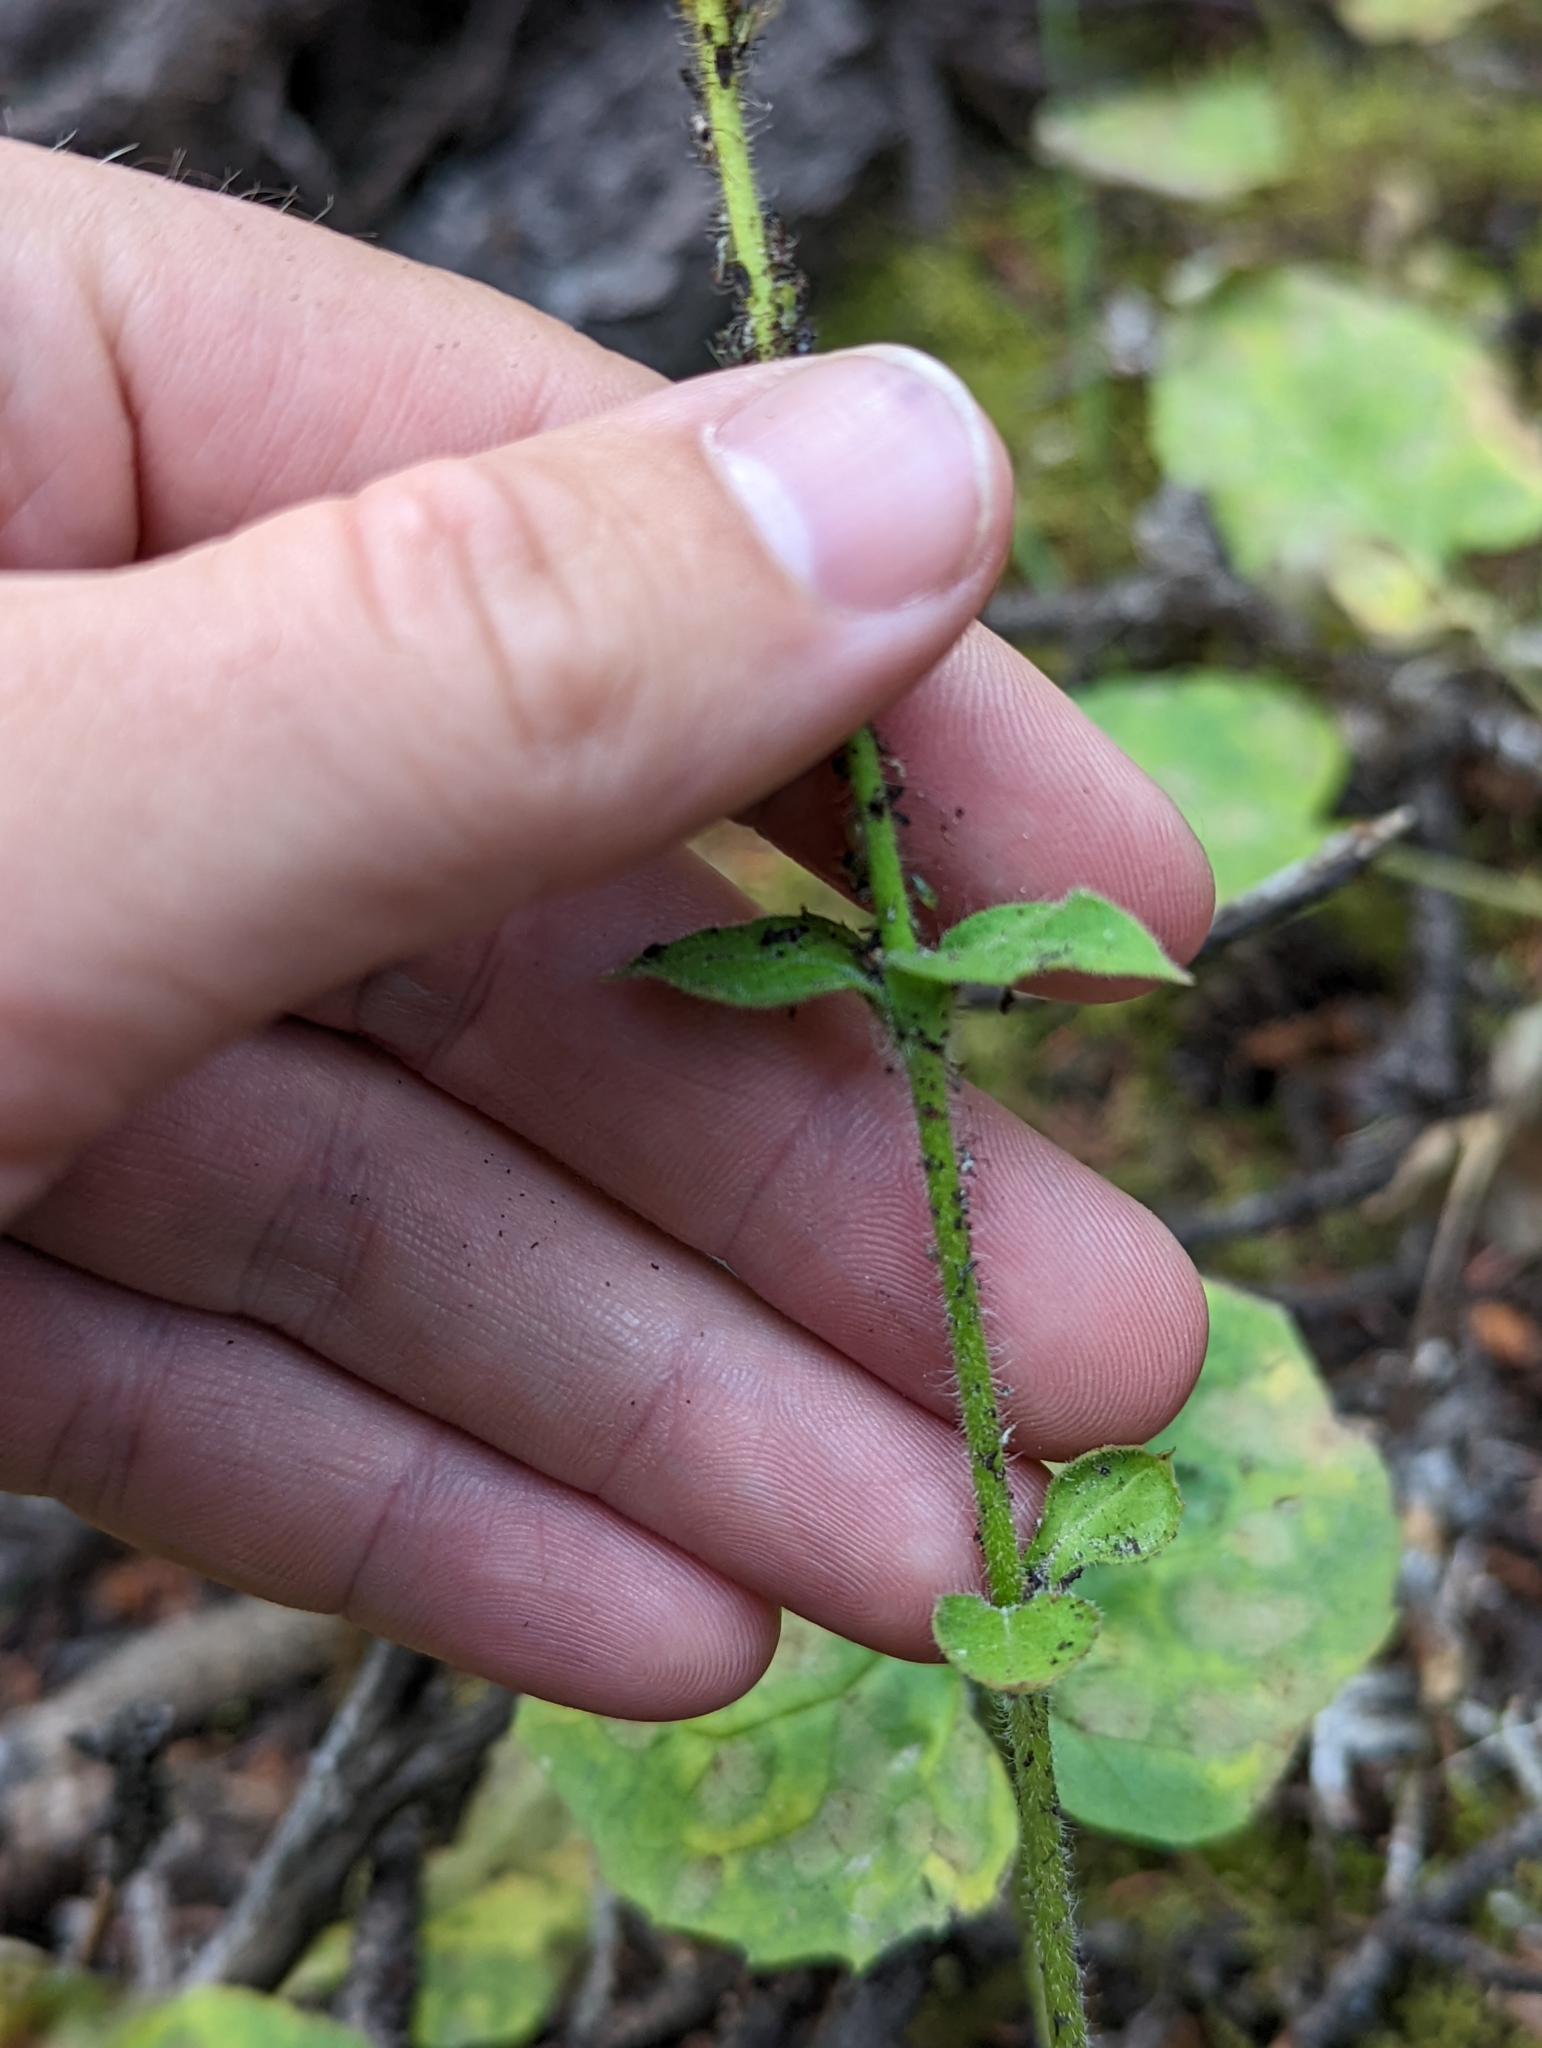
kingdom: Plantae
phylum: Tracheophyta
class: Magnoliopsida
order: Asterales
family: Asteraceae
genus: Arnica
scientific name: Arnica cordifolia
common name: Heart-leaf arnica
